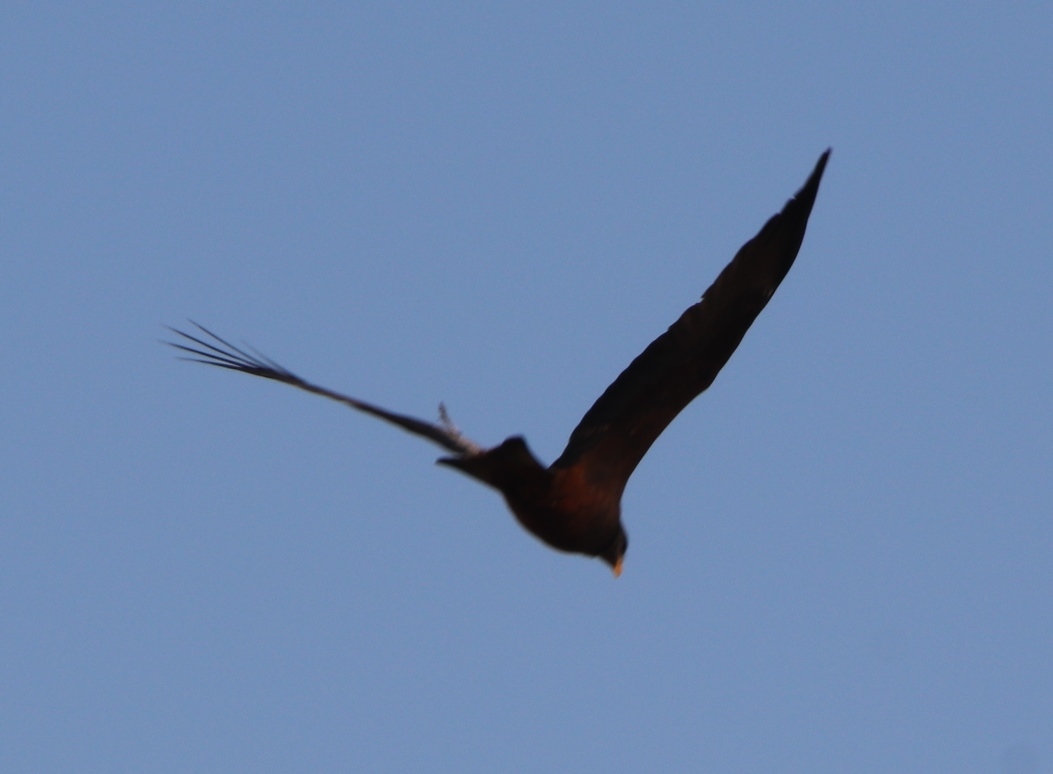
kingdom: Animalia
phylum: Chordata
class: Aves
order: Accipitriformes
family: Accipitridae
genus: Milvus
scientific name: Milvus migrans
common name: Black kite
